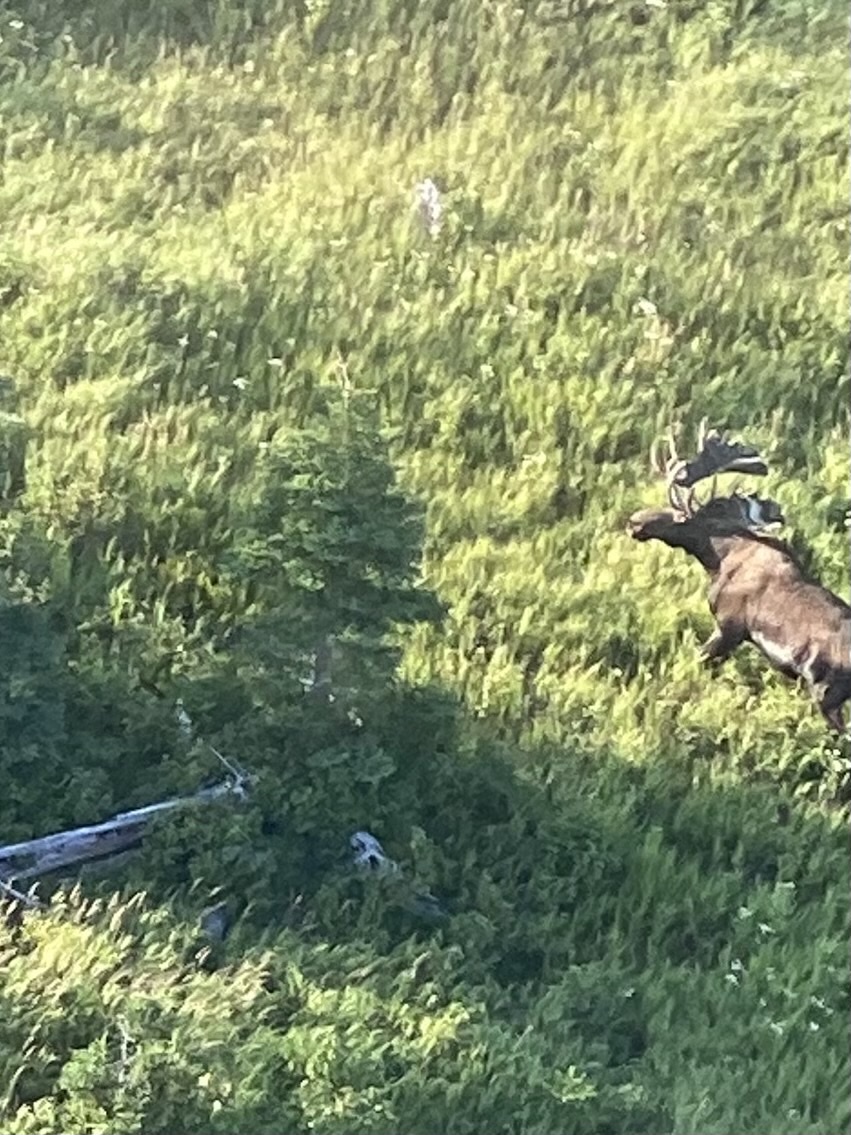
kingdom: Animalia
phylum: Chordata
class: Mammalia
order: Artiodactyla
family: Cervidae
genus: Alces
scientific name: Alces alces
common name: Moose
